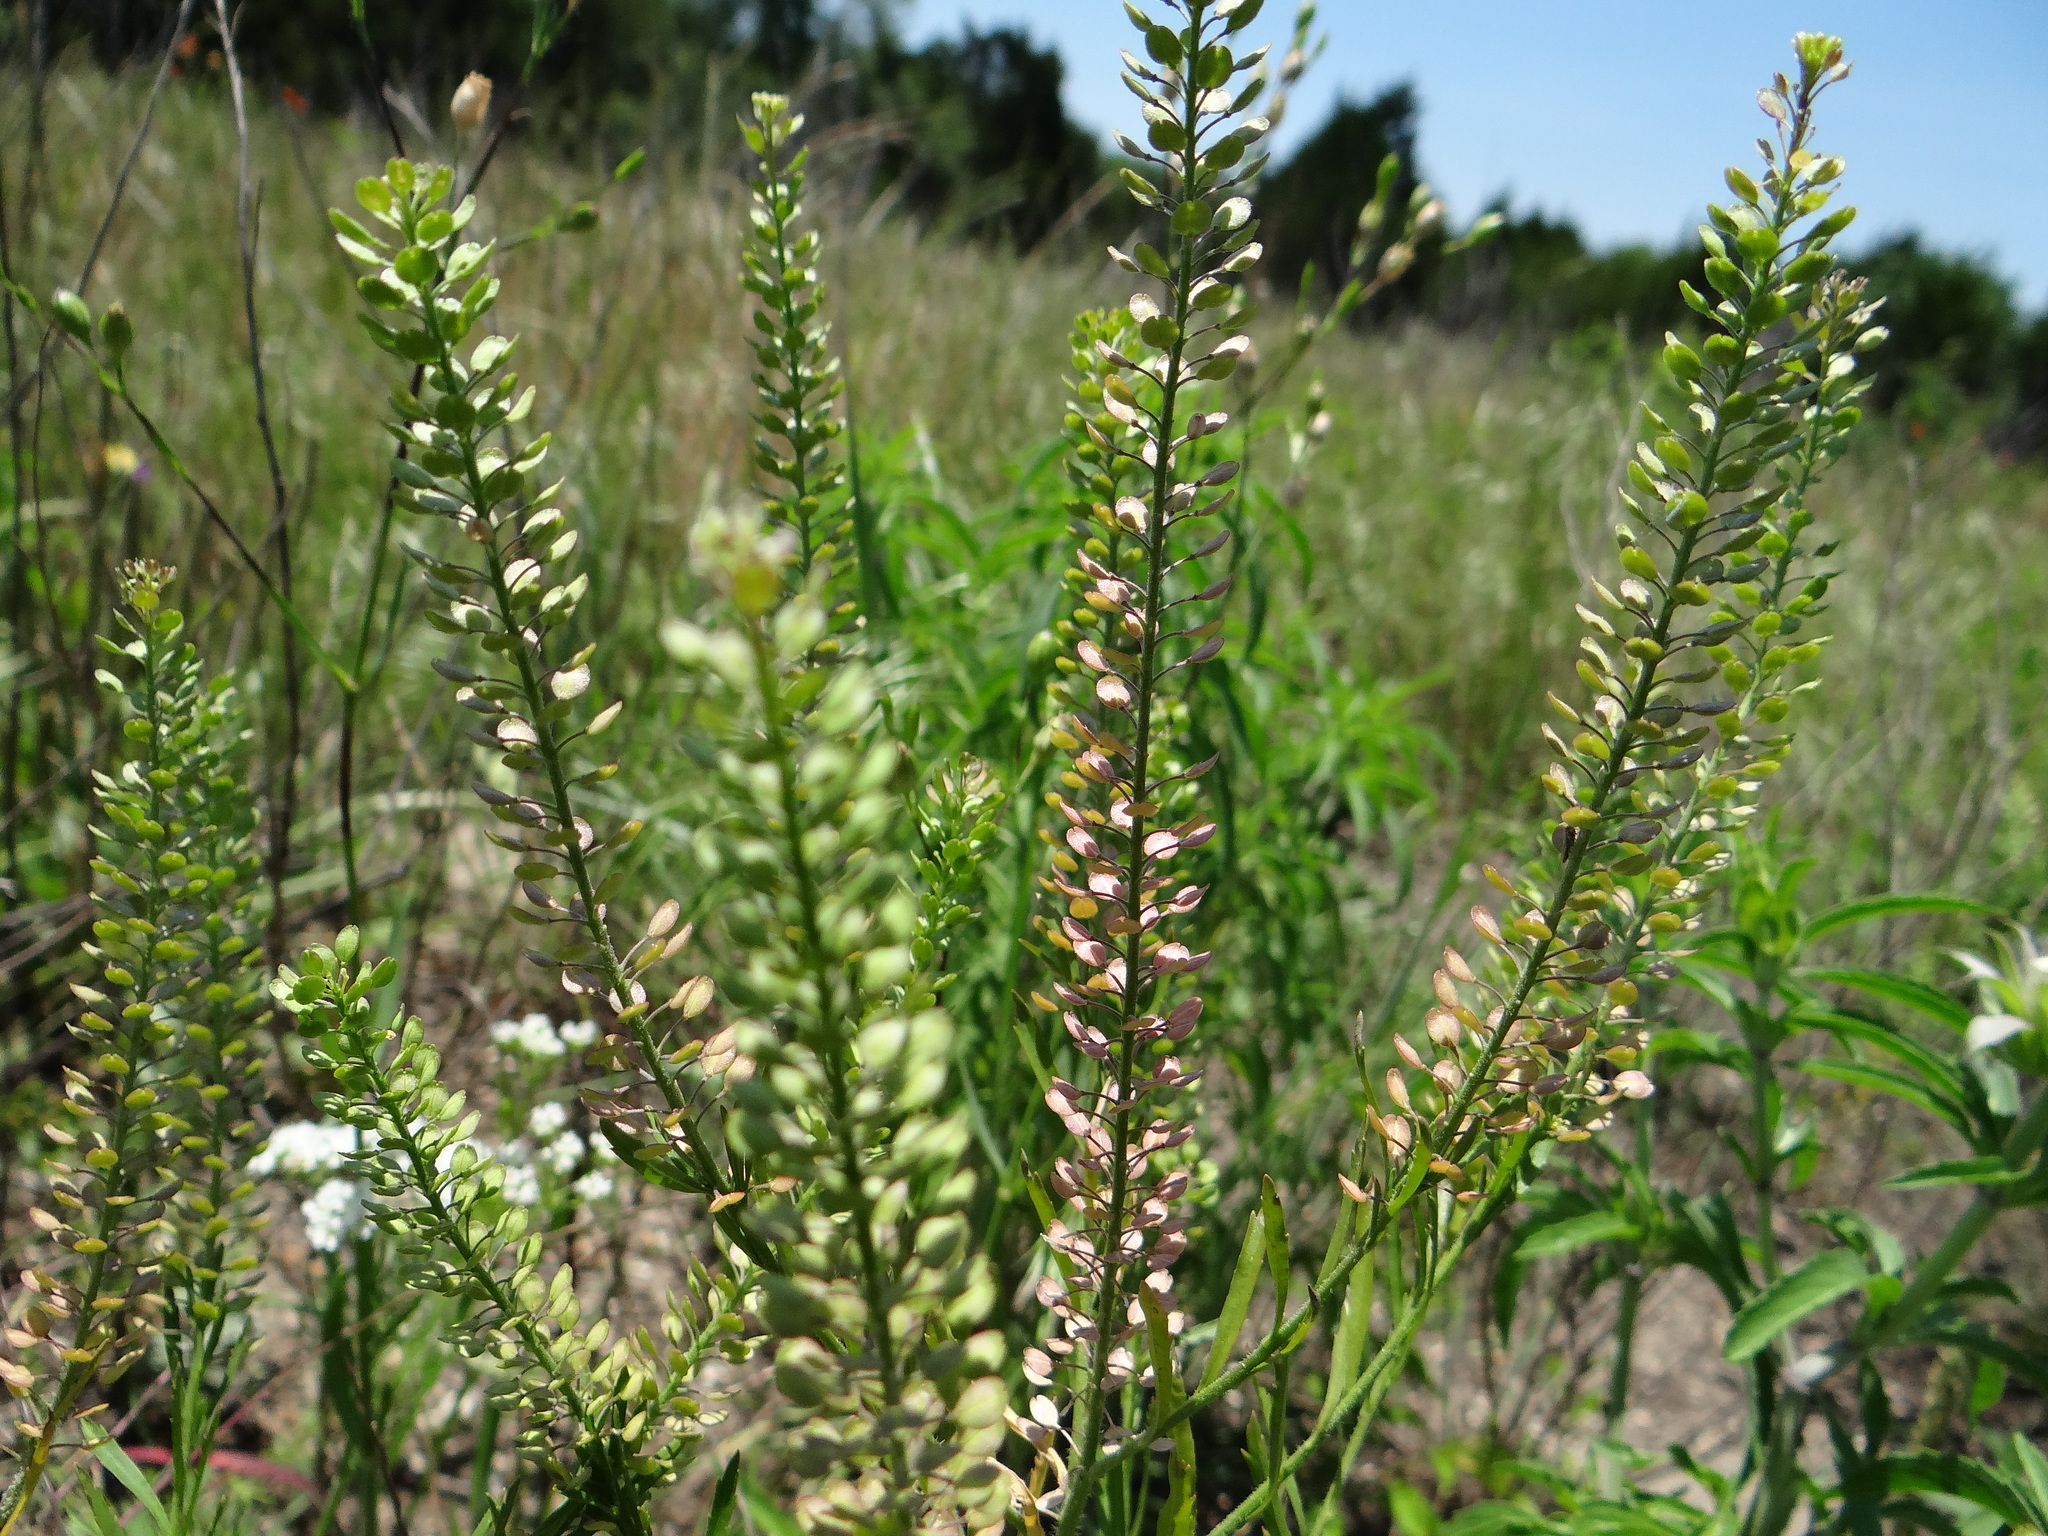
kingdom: Plantae
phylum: Tracheophyta
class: Magnoliopsida
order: Brassicales
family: Brassicaceae
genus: Lepidium
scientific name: Lepidium virginicum
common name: Least pepperwort
